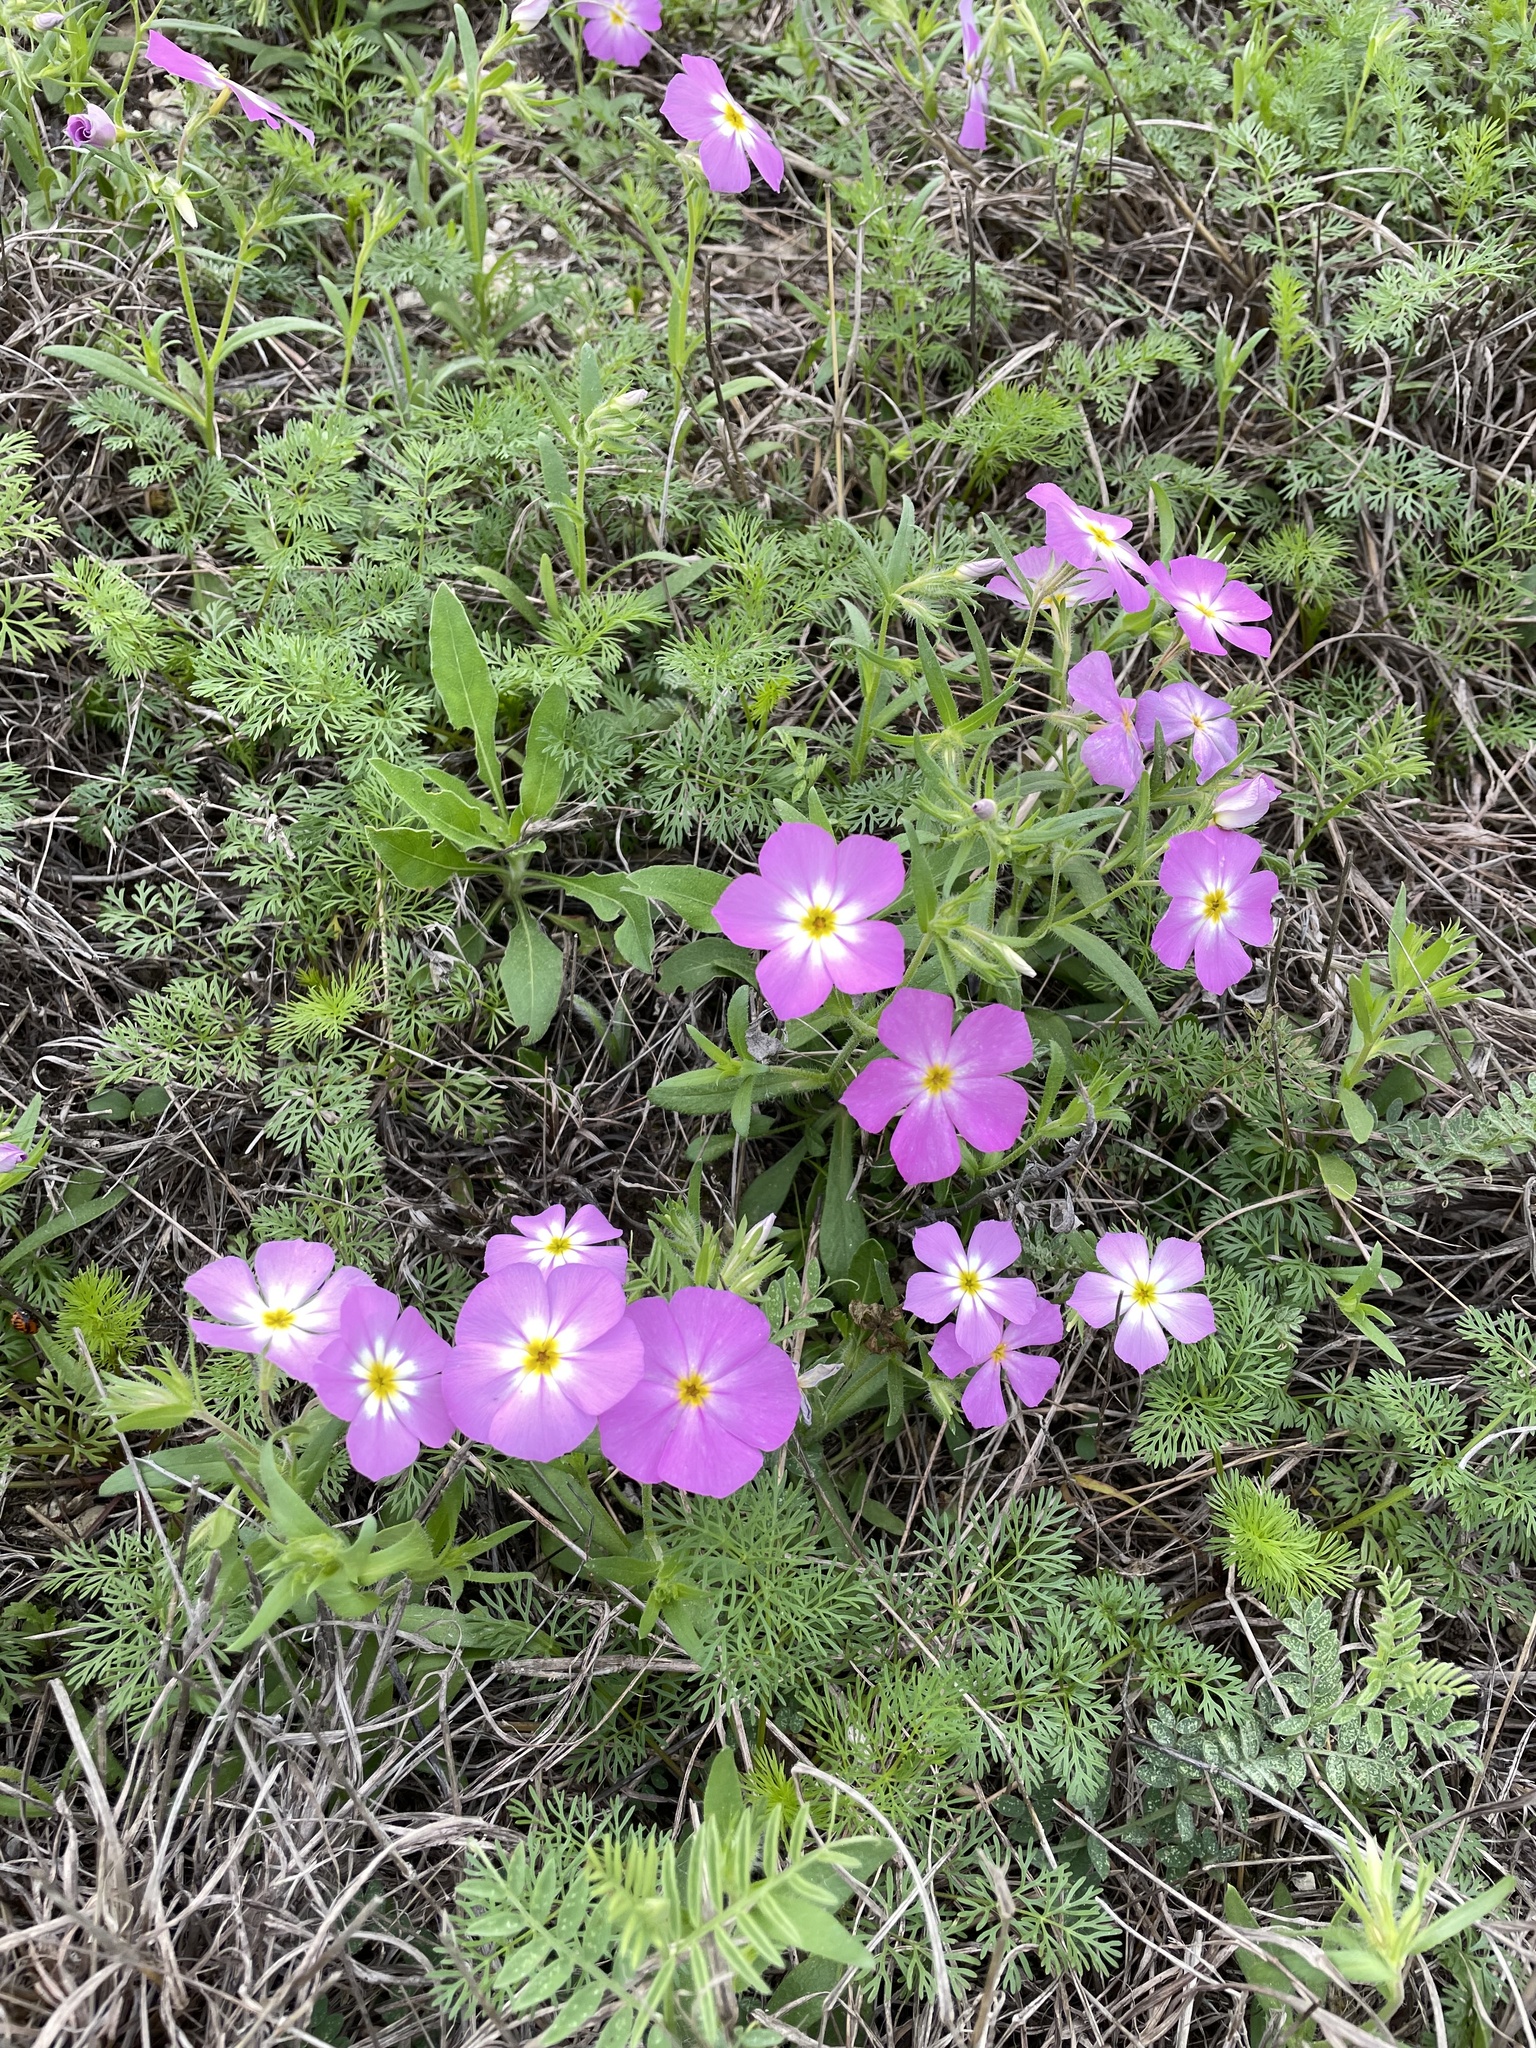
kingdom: Plantae
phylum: Tracheophyta
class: Magnoliopsida
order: Ericales
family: Polemoniaceae
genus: Phlox
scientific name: Phlox roemeriana
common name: Roemer's phlox
